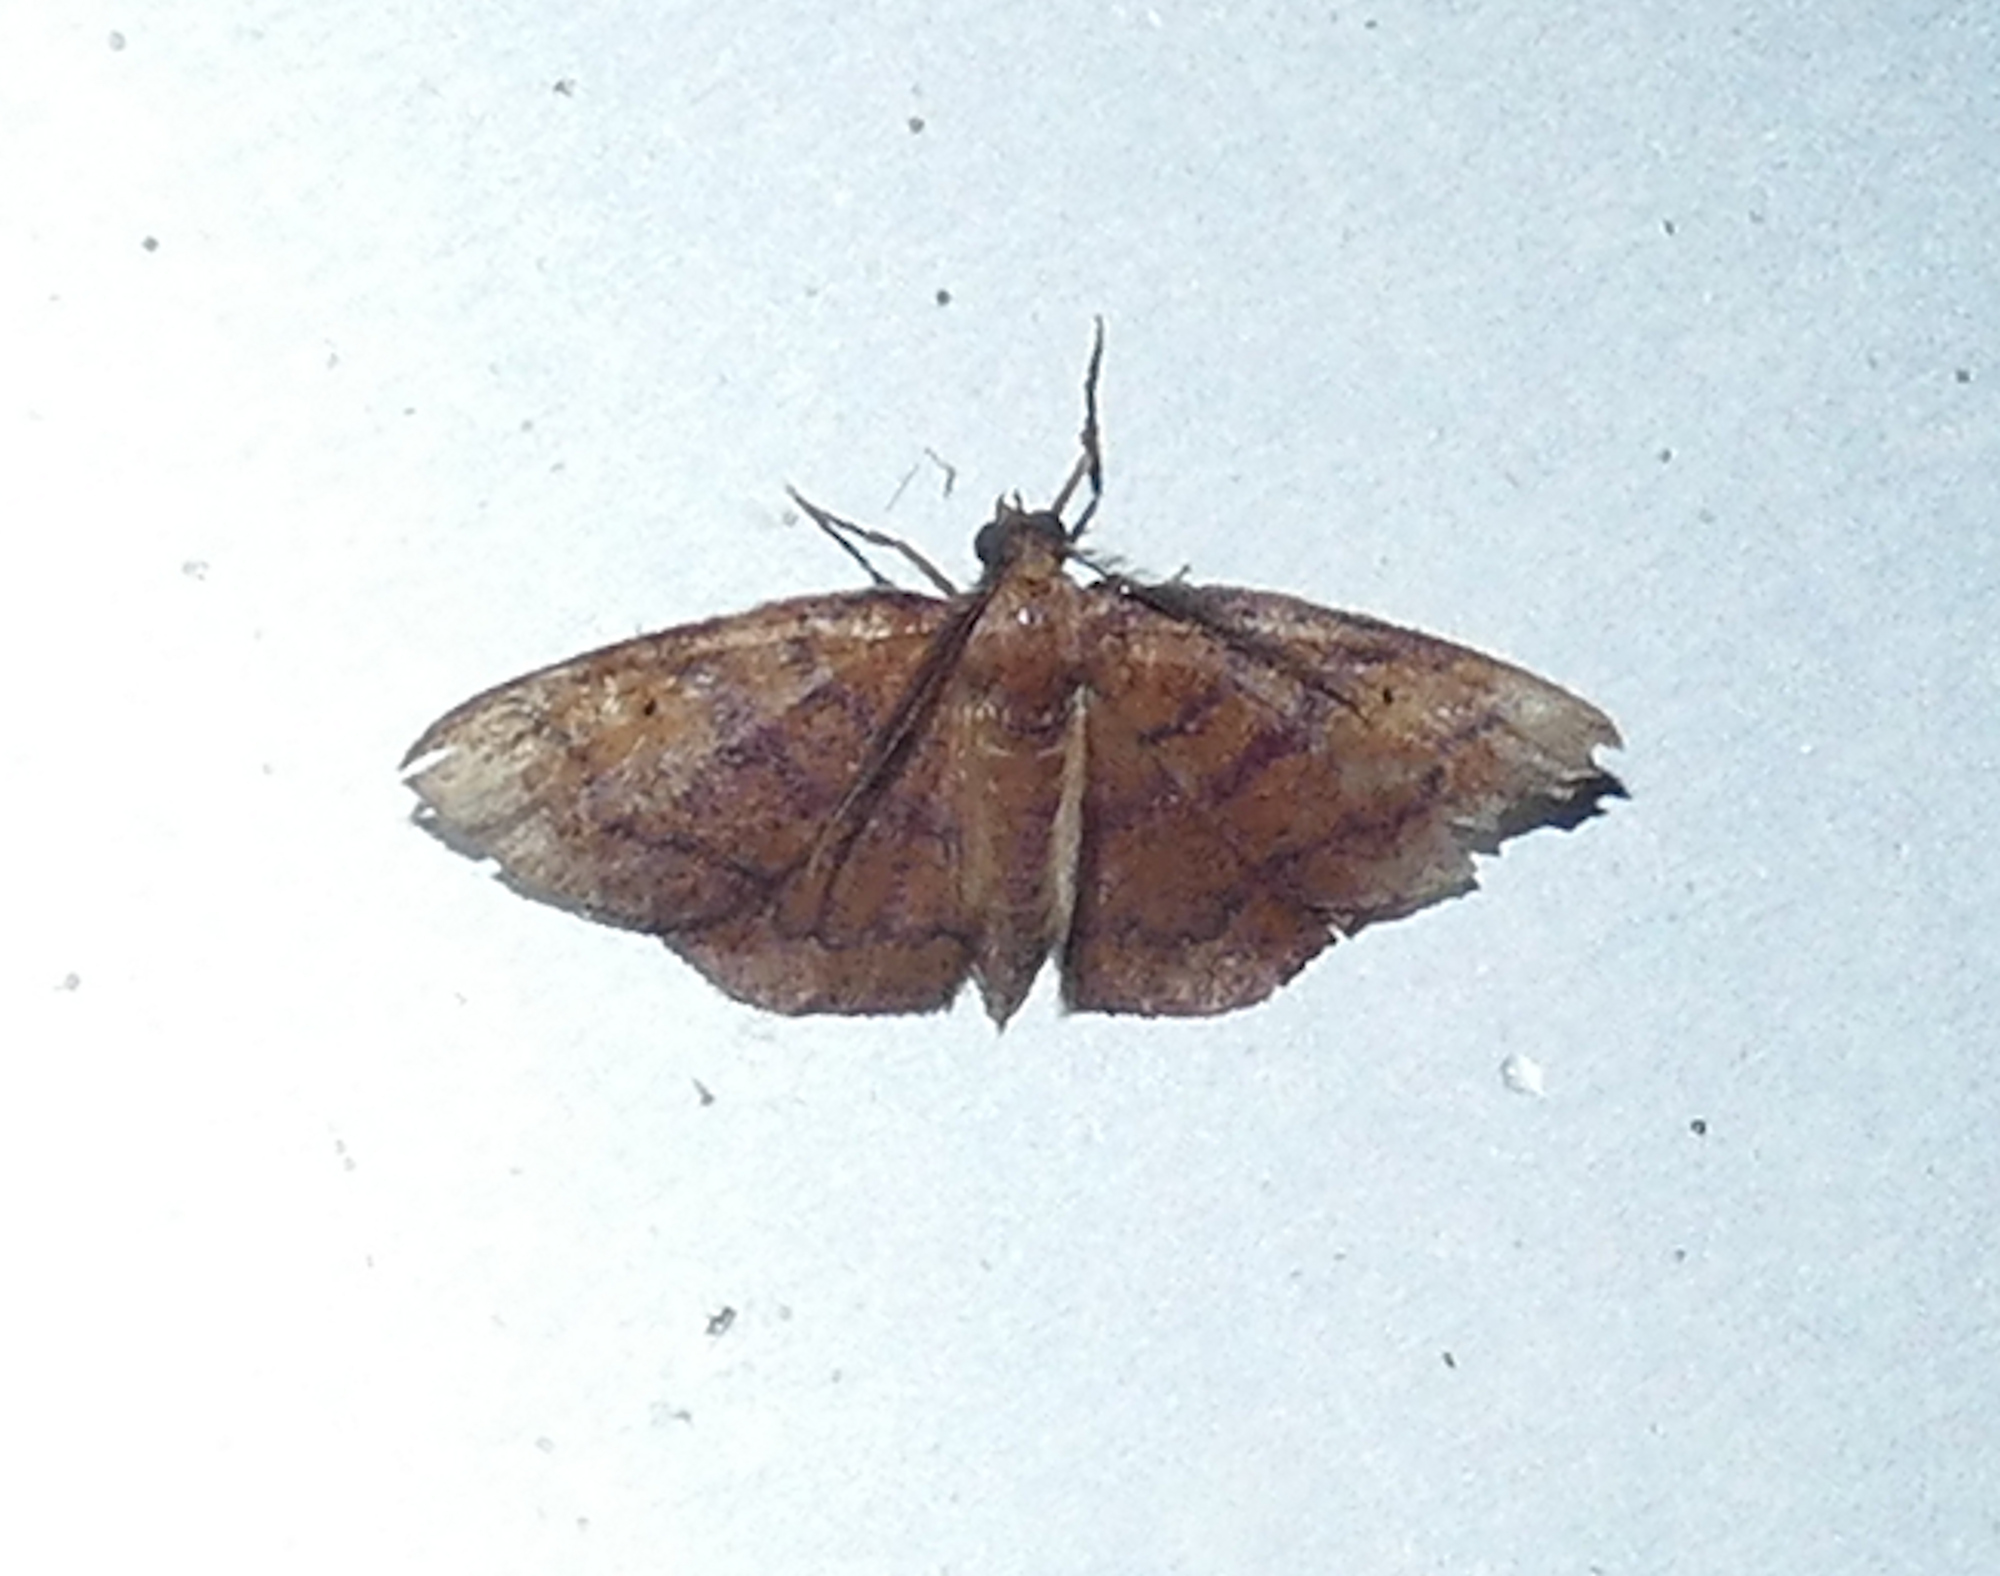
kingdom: Animalia
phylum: Arthropoda
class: Insecta
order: Lepidoptera
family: Geometridae
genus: Ilexia
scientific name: Ilexia intractata
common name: Black-dotted ruddy moth
